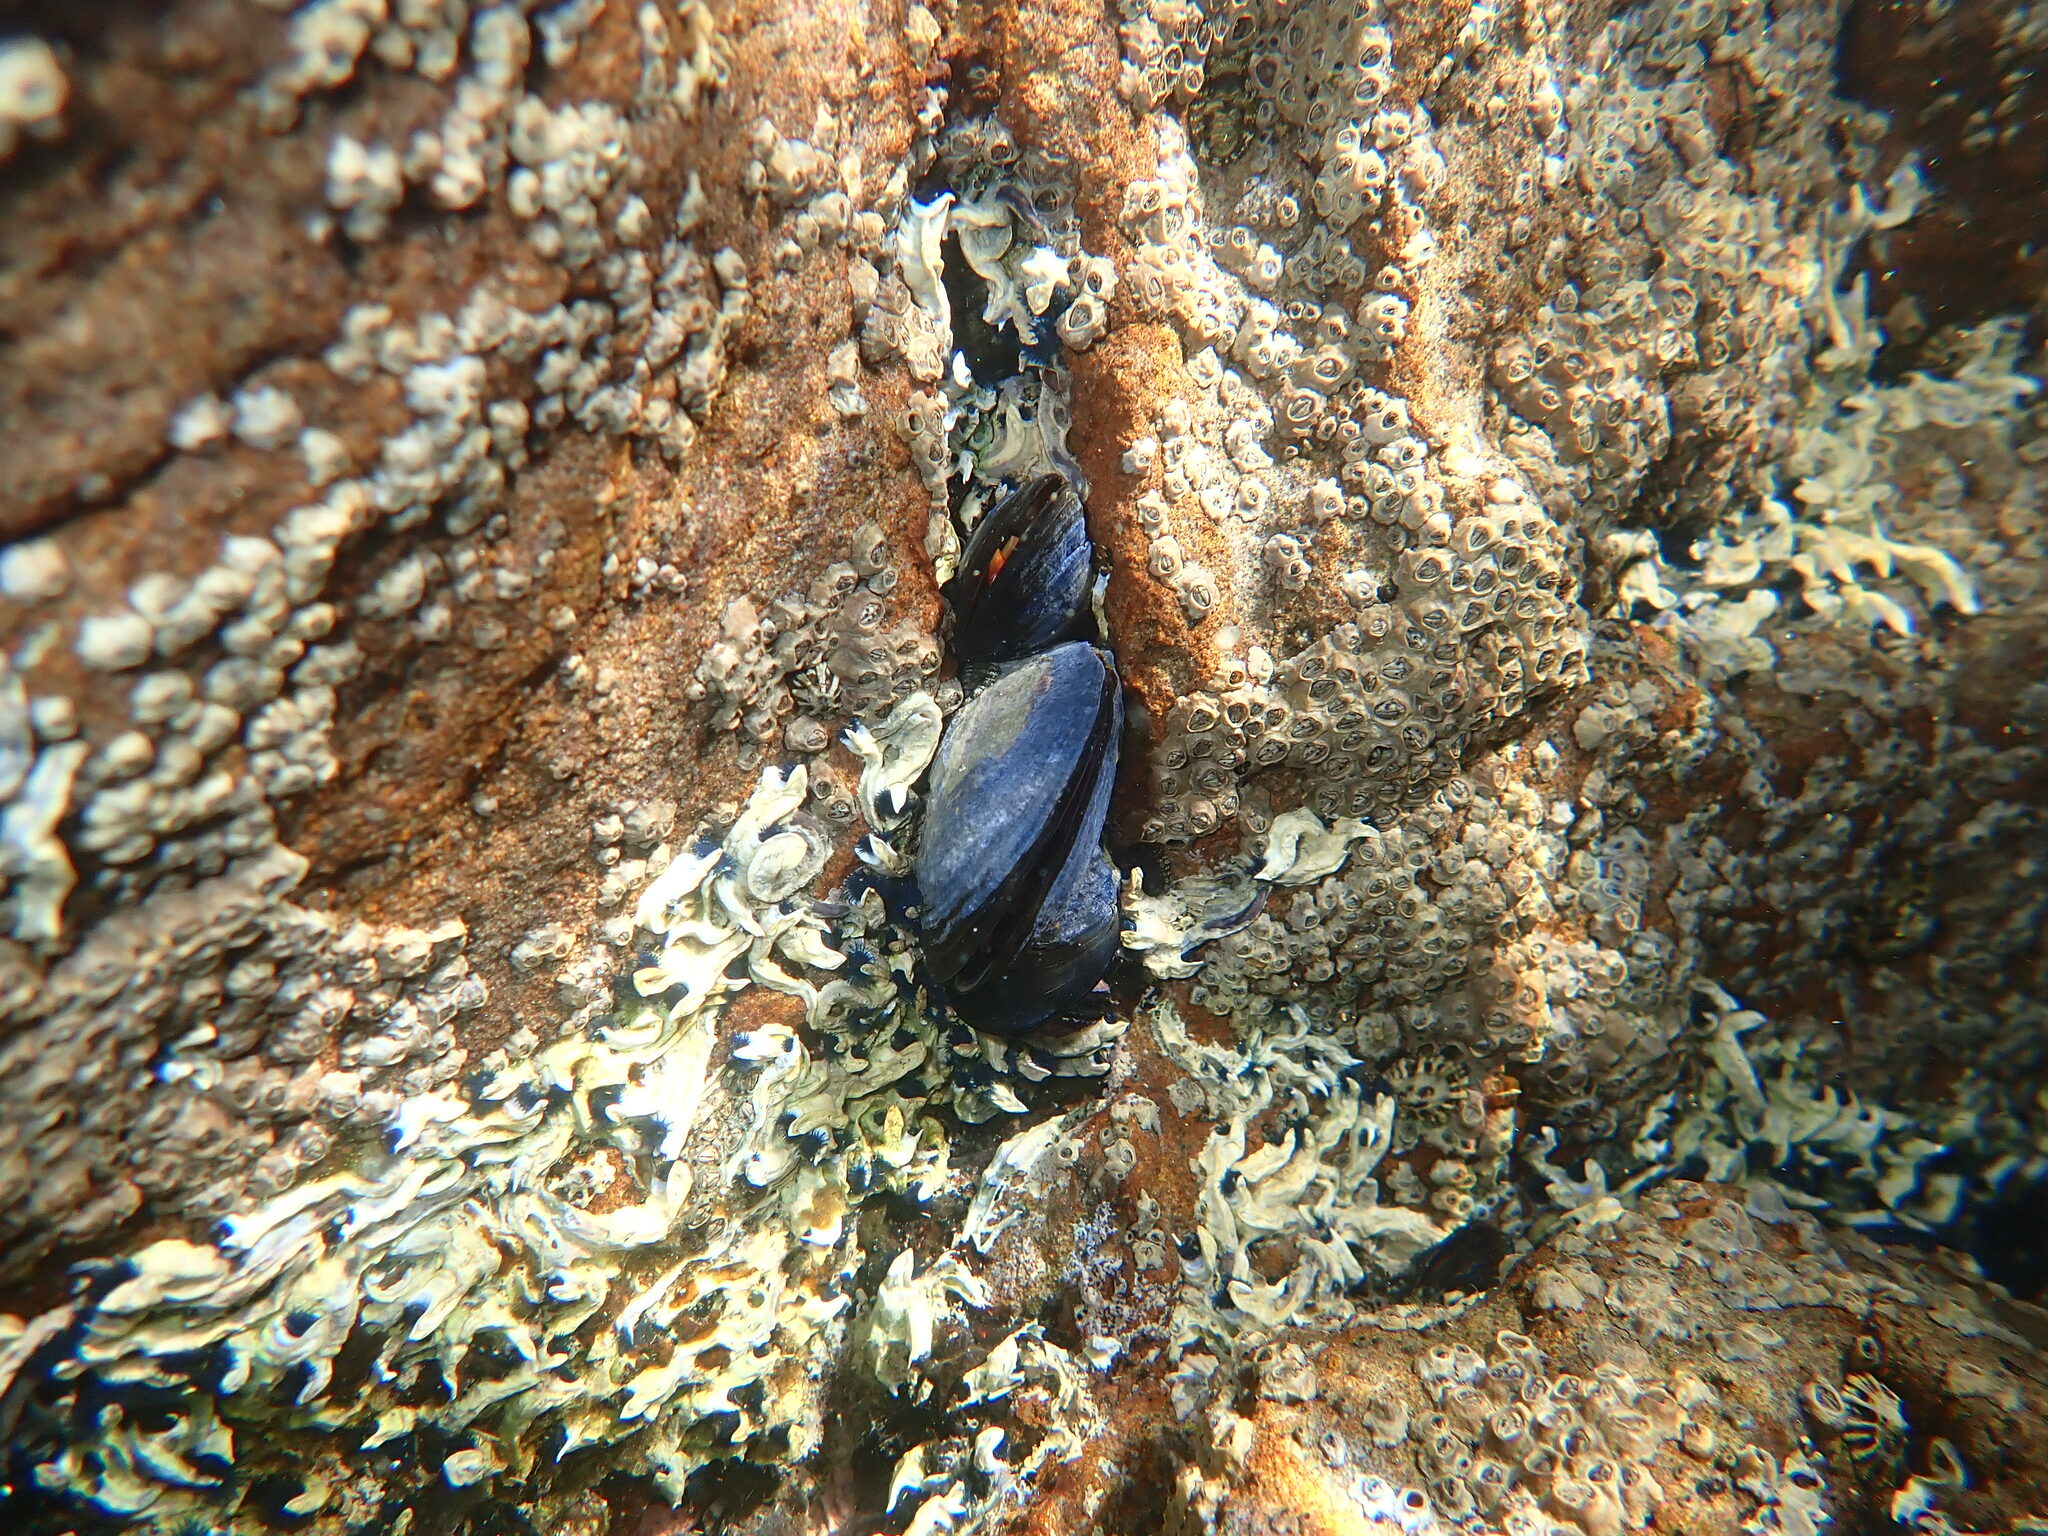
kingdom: Animalia
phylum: Mollusca
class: Bivalvia
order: Mytilida
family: Mytilidae
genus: Mytilus
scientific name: Mytilus planulatus
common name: Australian mussel
